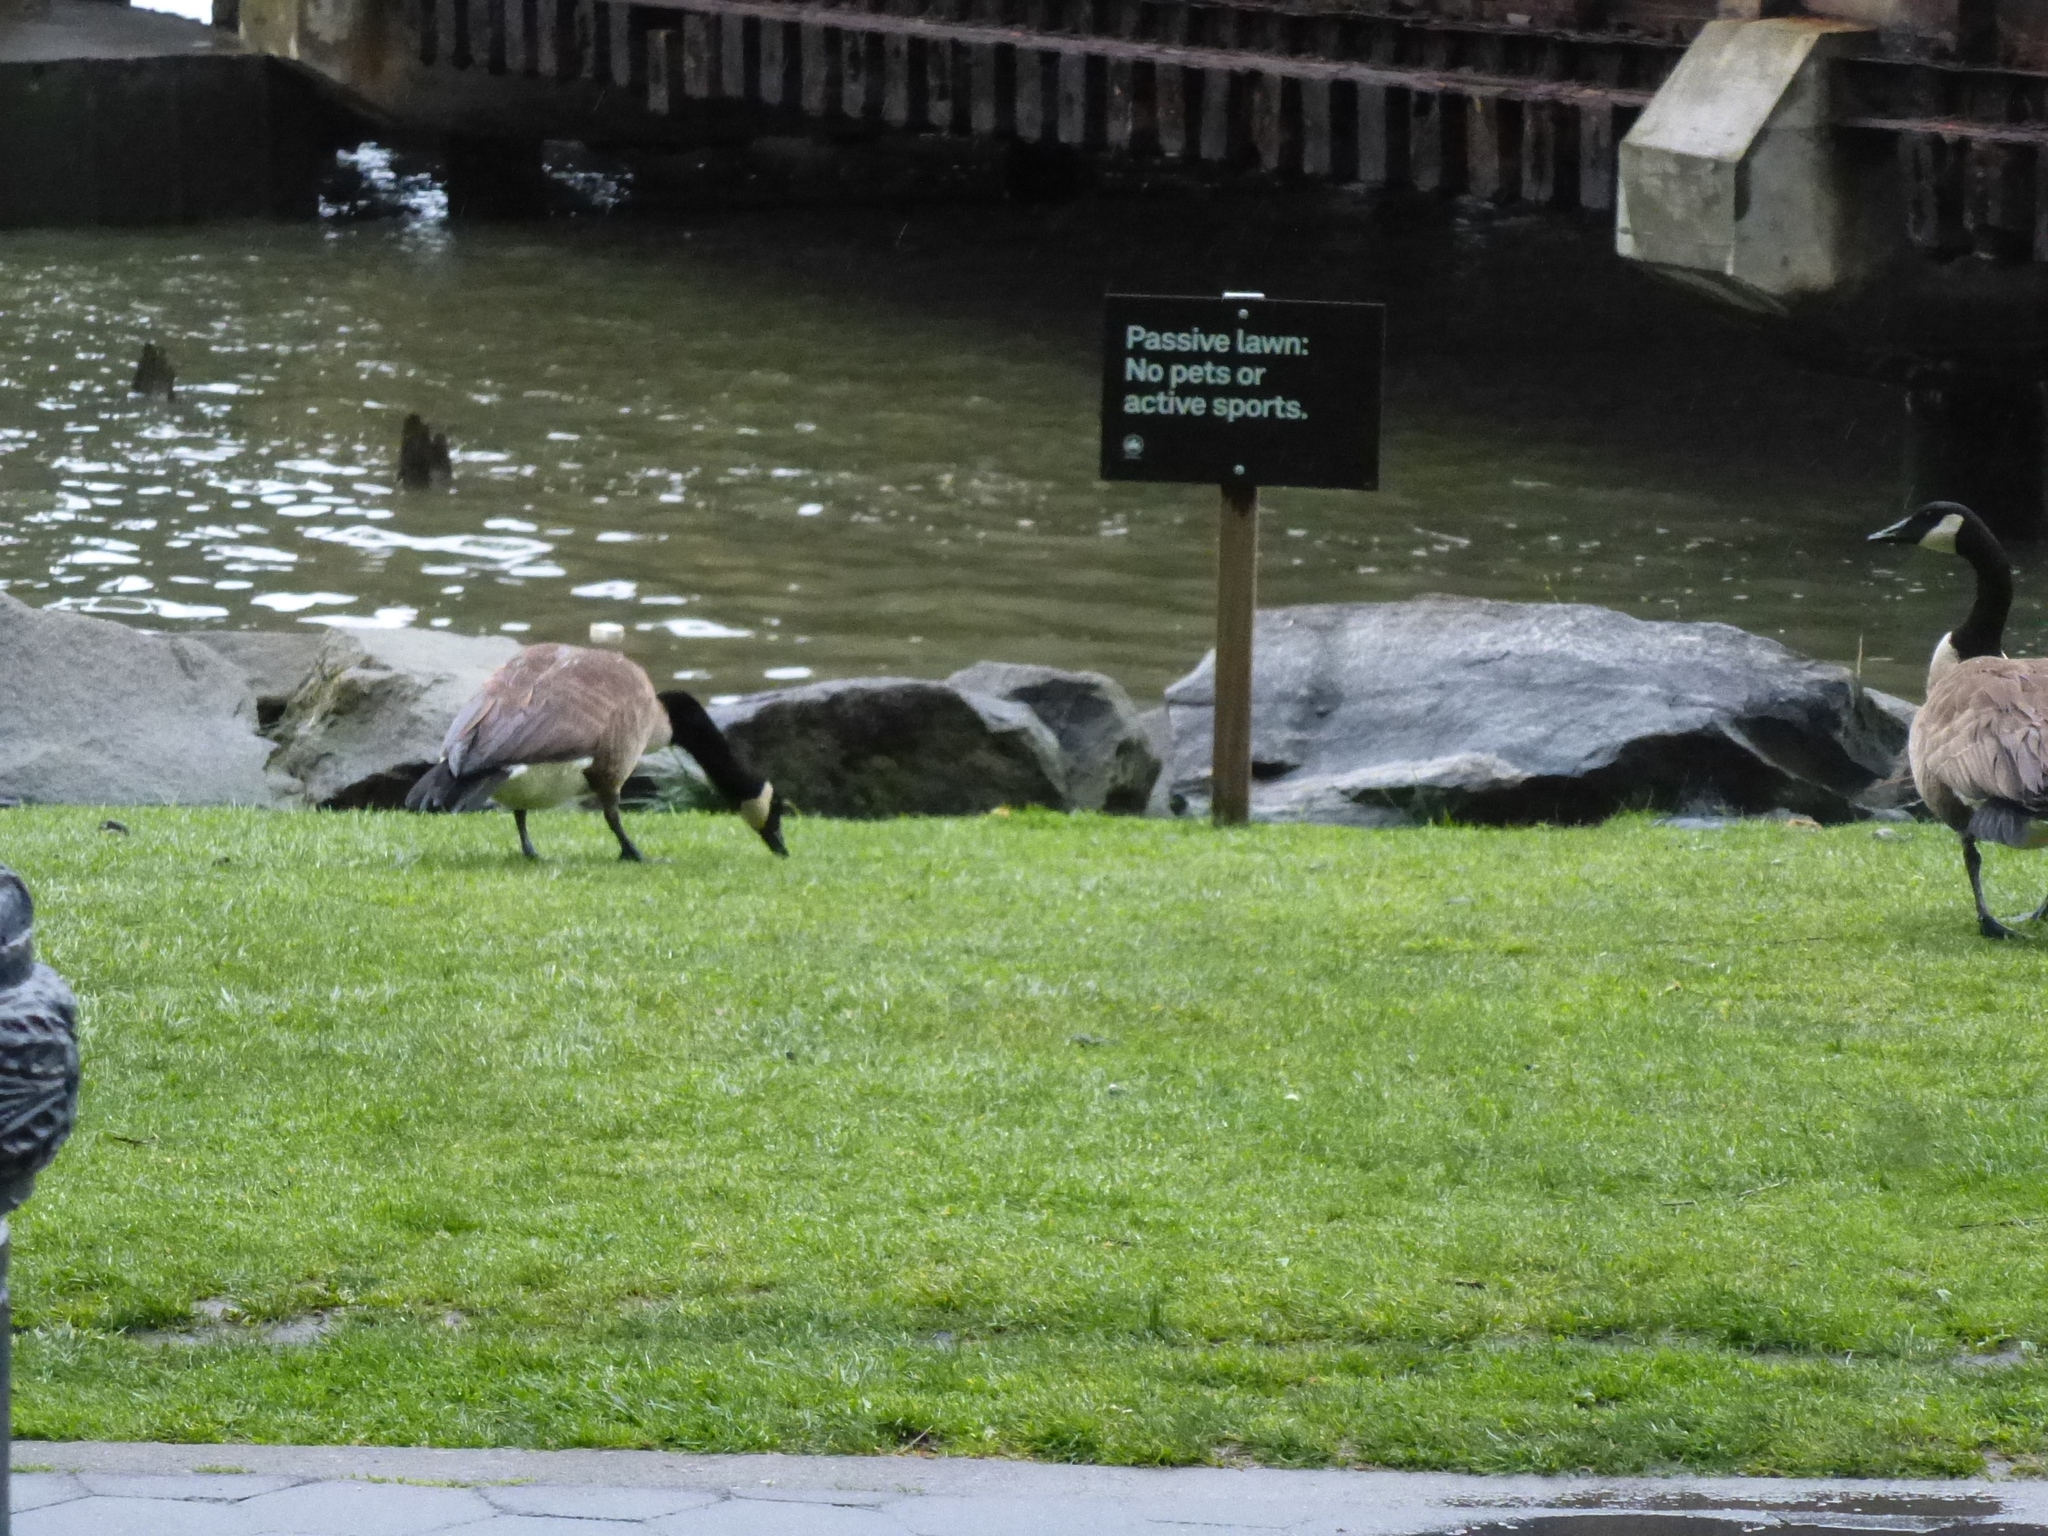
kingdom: Animalia
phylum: Chordata
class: Aves
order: Anseriformes
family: Anatidae
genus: Branta
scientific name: Branta canadensis
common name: Canada goose
